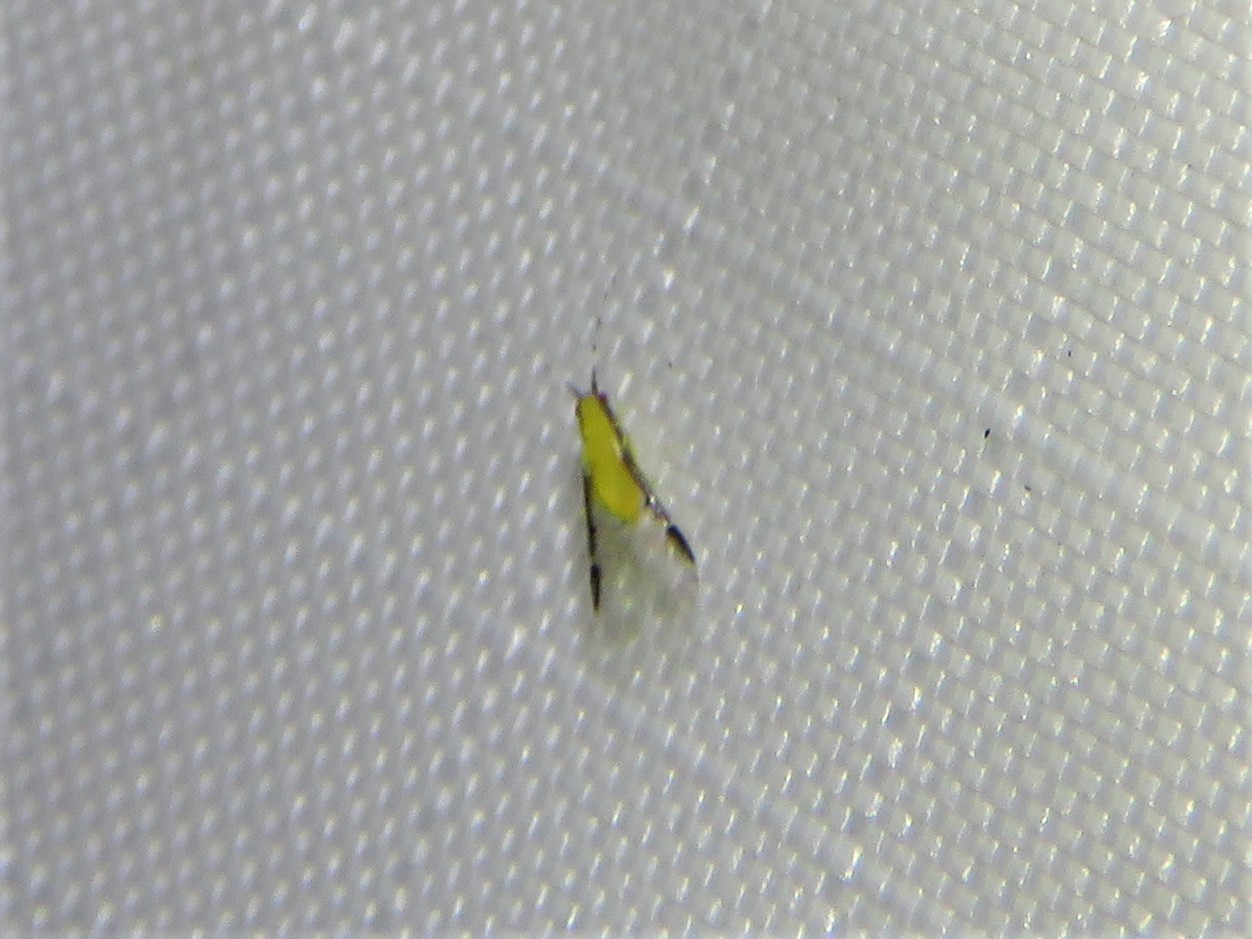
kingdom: Animalia
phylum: Arthropoda
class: Insecta
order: Hemiptera
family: Aphididae
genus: Monellia
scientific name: Monellia caryella
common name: Blackmargined aphid
